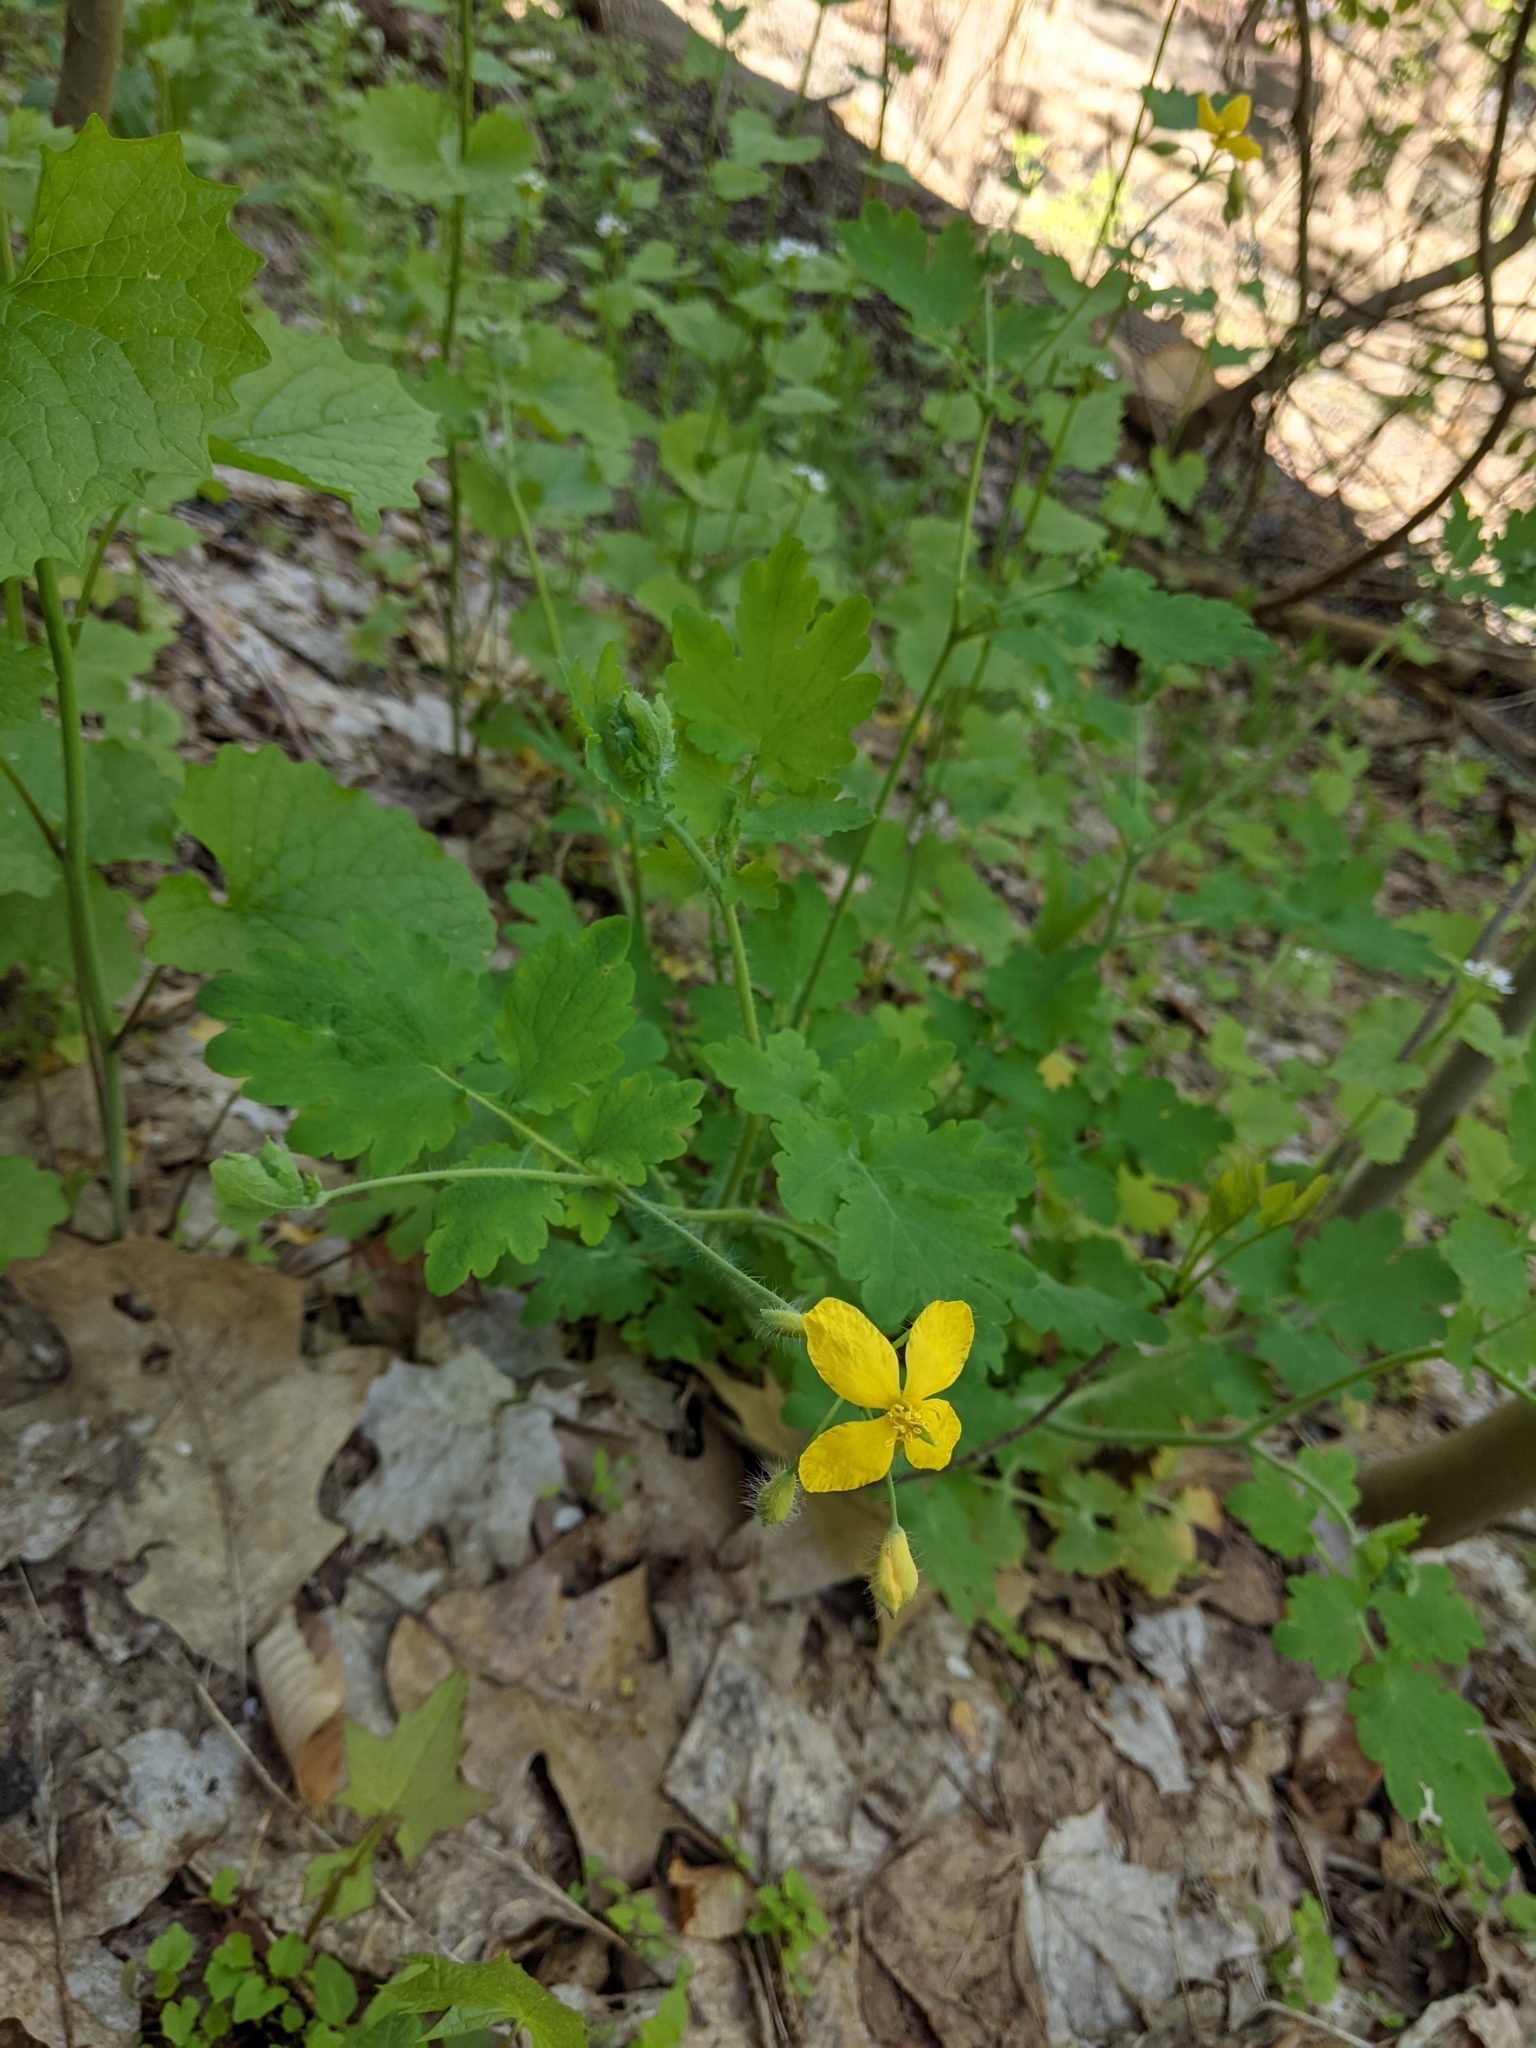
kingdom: Plantae
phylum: Tracheophyta
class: Magnoliopsida
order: Ranunculales
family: Papaveraceae
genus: Chelidonium
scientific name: Chelidonium majus
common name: Greater celandine
